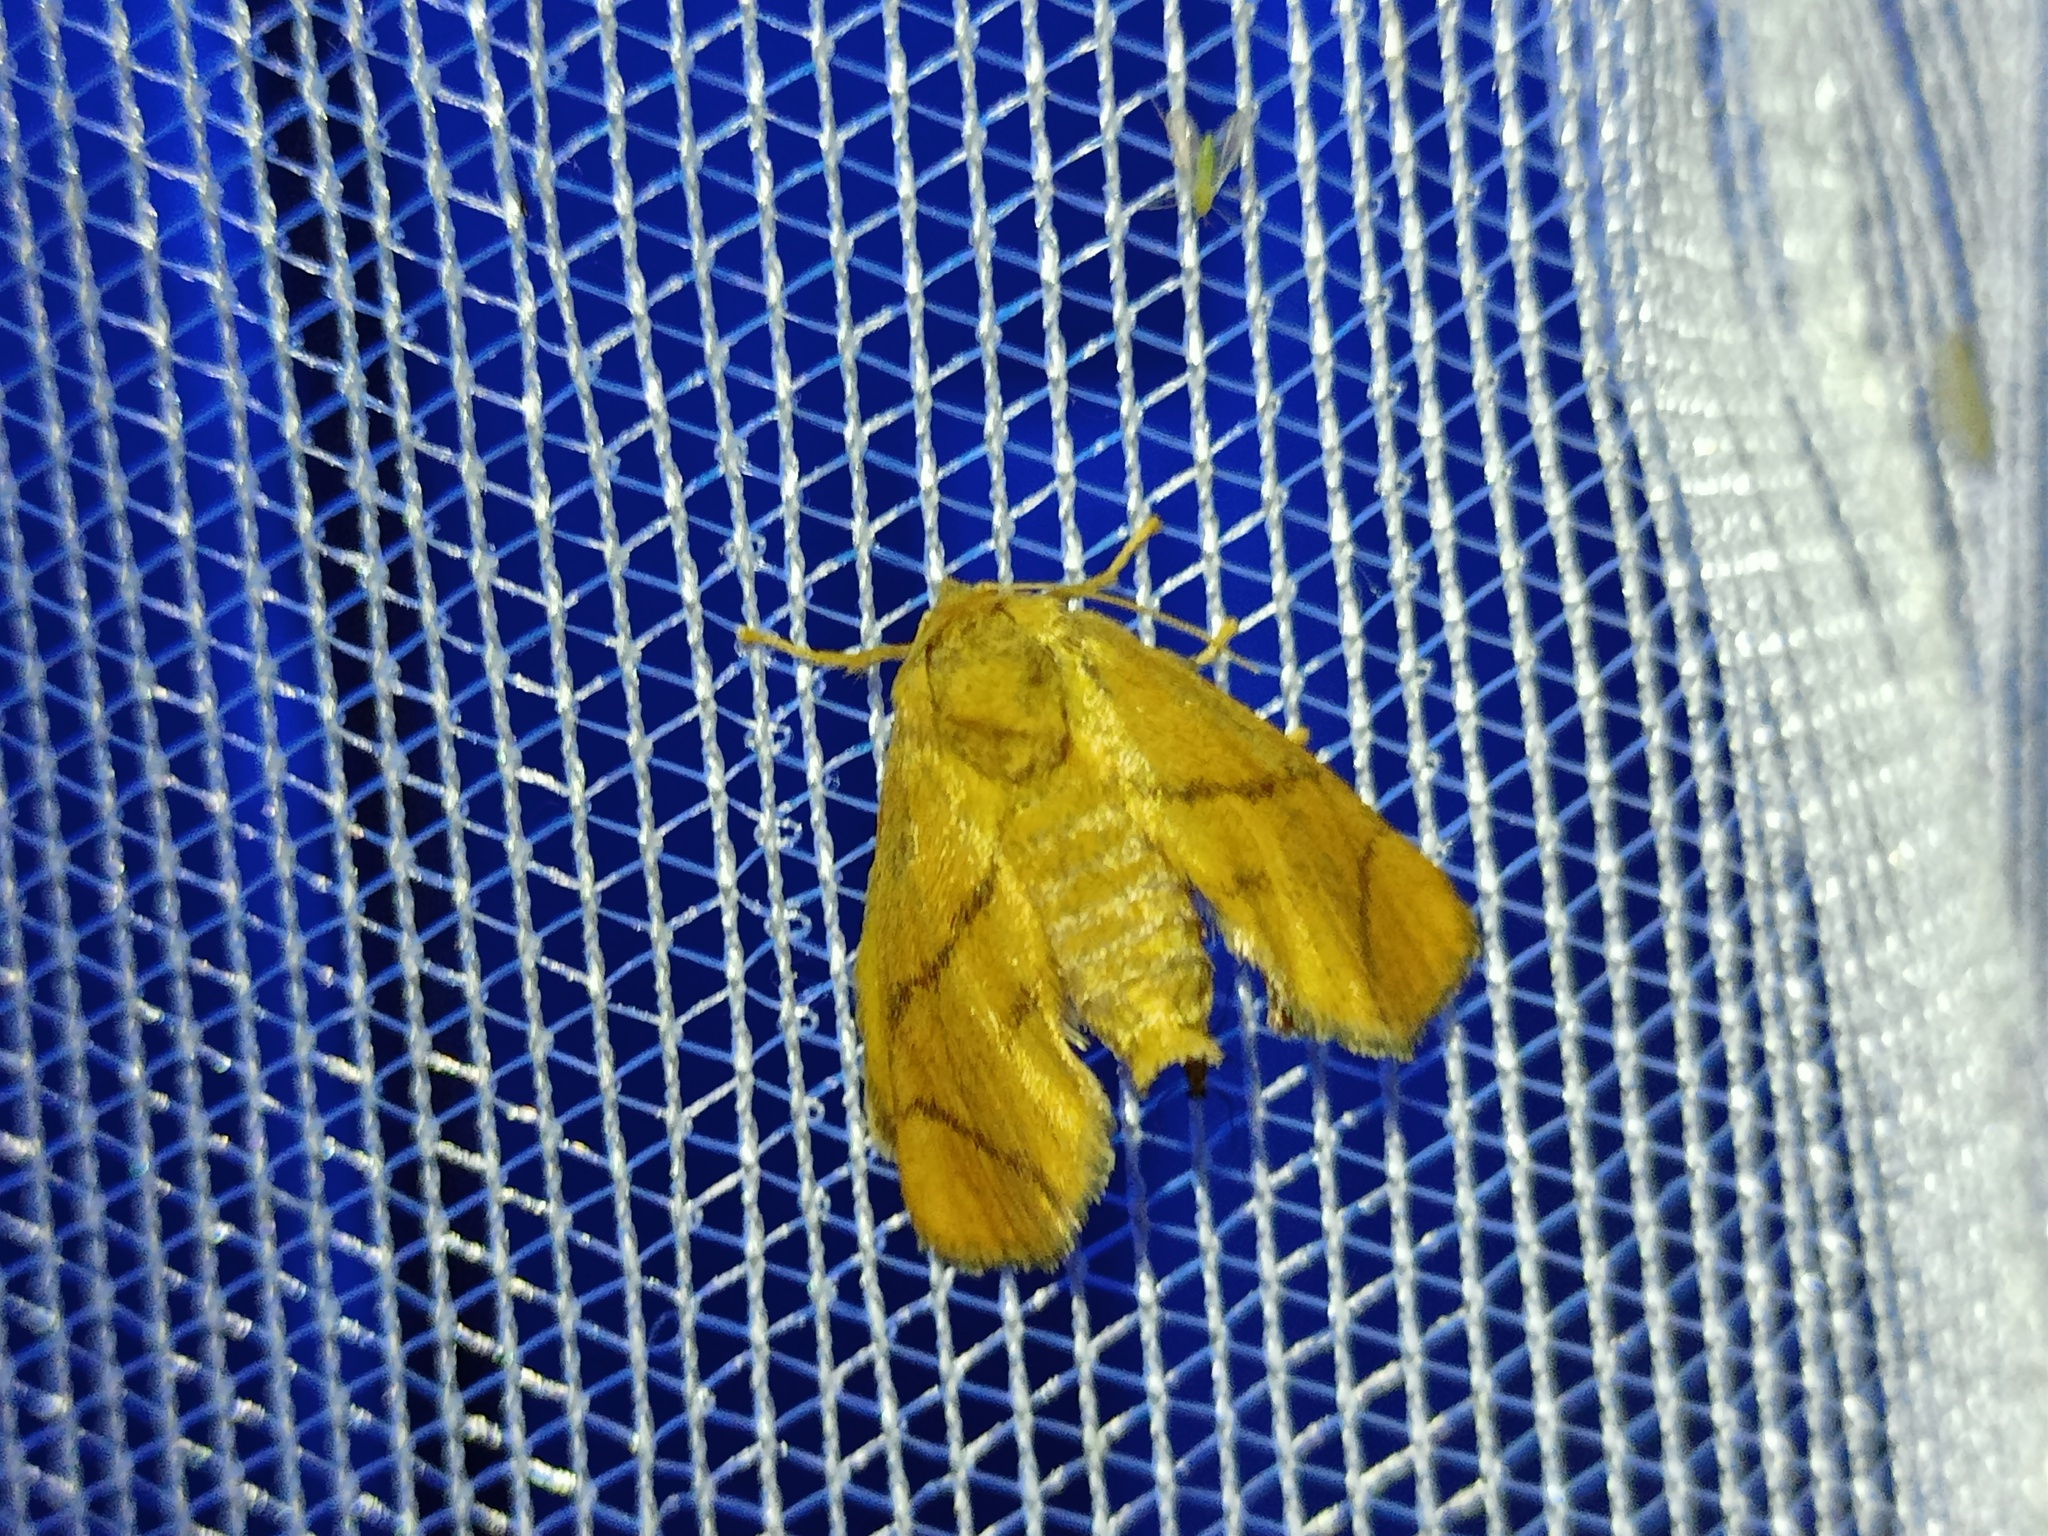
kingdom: Animalia
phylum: Arthropoda
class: Insecta
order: Lepidoptera
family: Limacodidae
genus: Apoda
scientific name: Apoda limacodes
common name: Festoon
